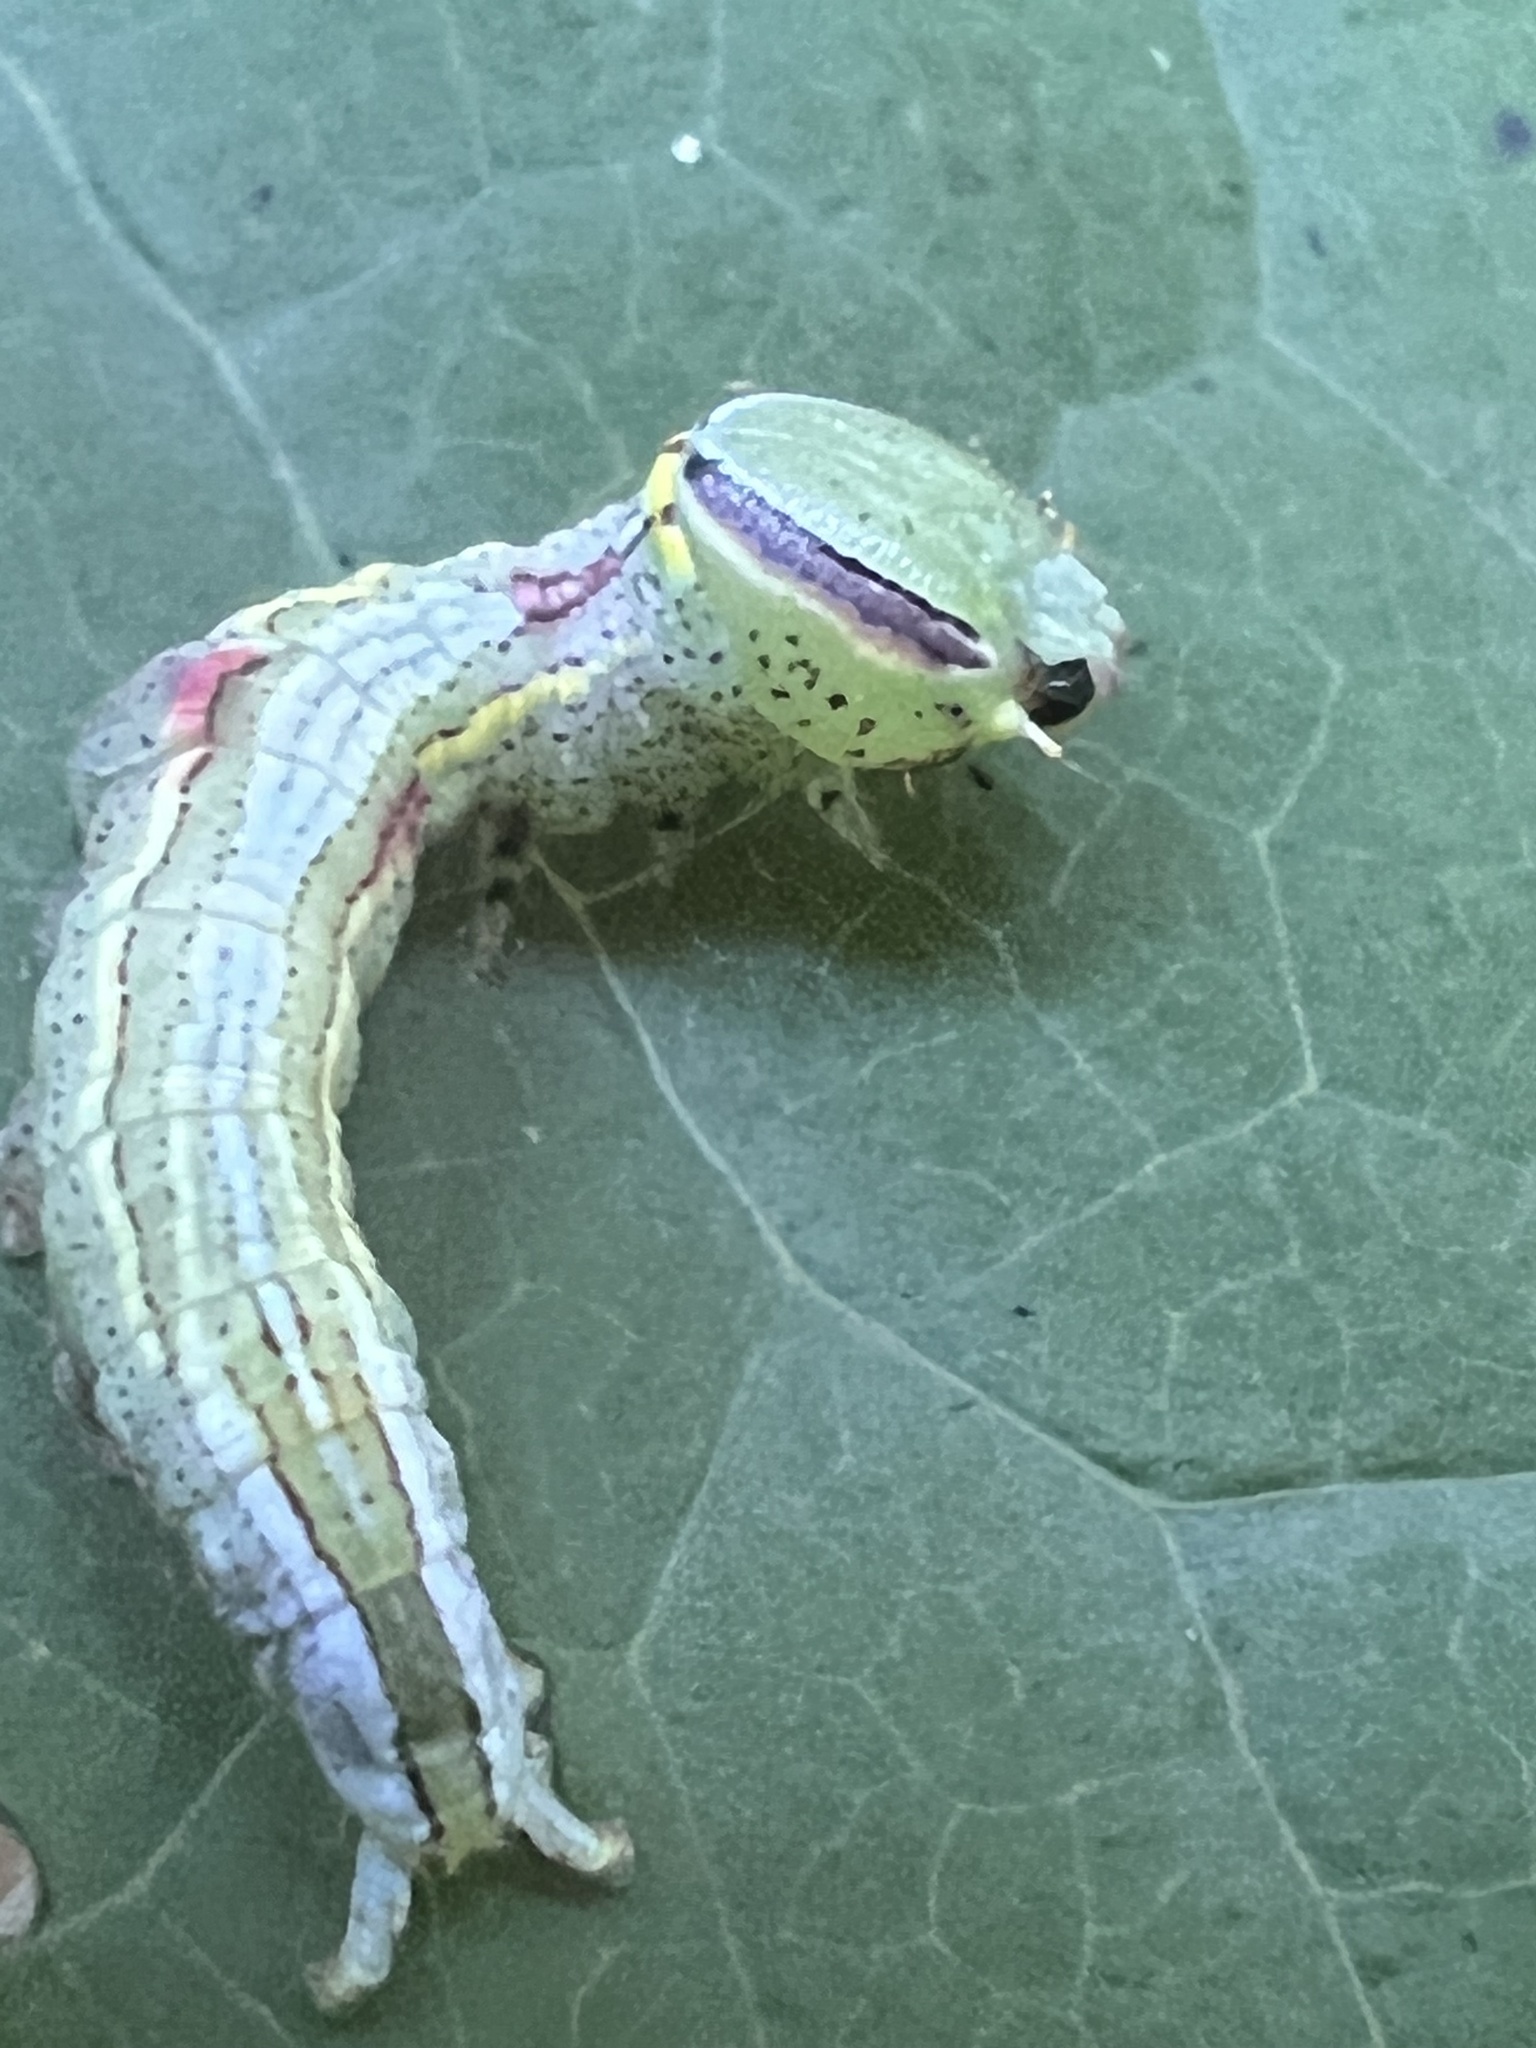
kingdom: Animalia
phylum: Arthropoda
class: Insecta
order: Lepidoptera
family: Notodontidae
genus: Disphragis
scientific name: Disphragis Cecrita guttivitta
